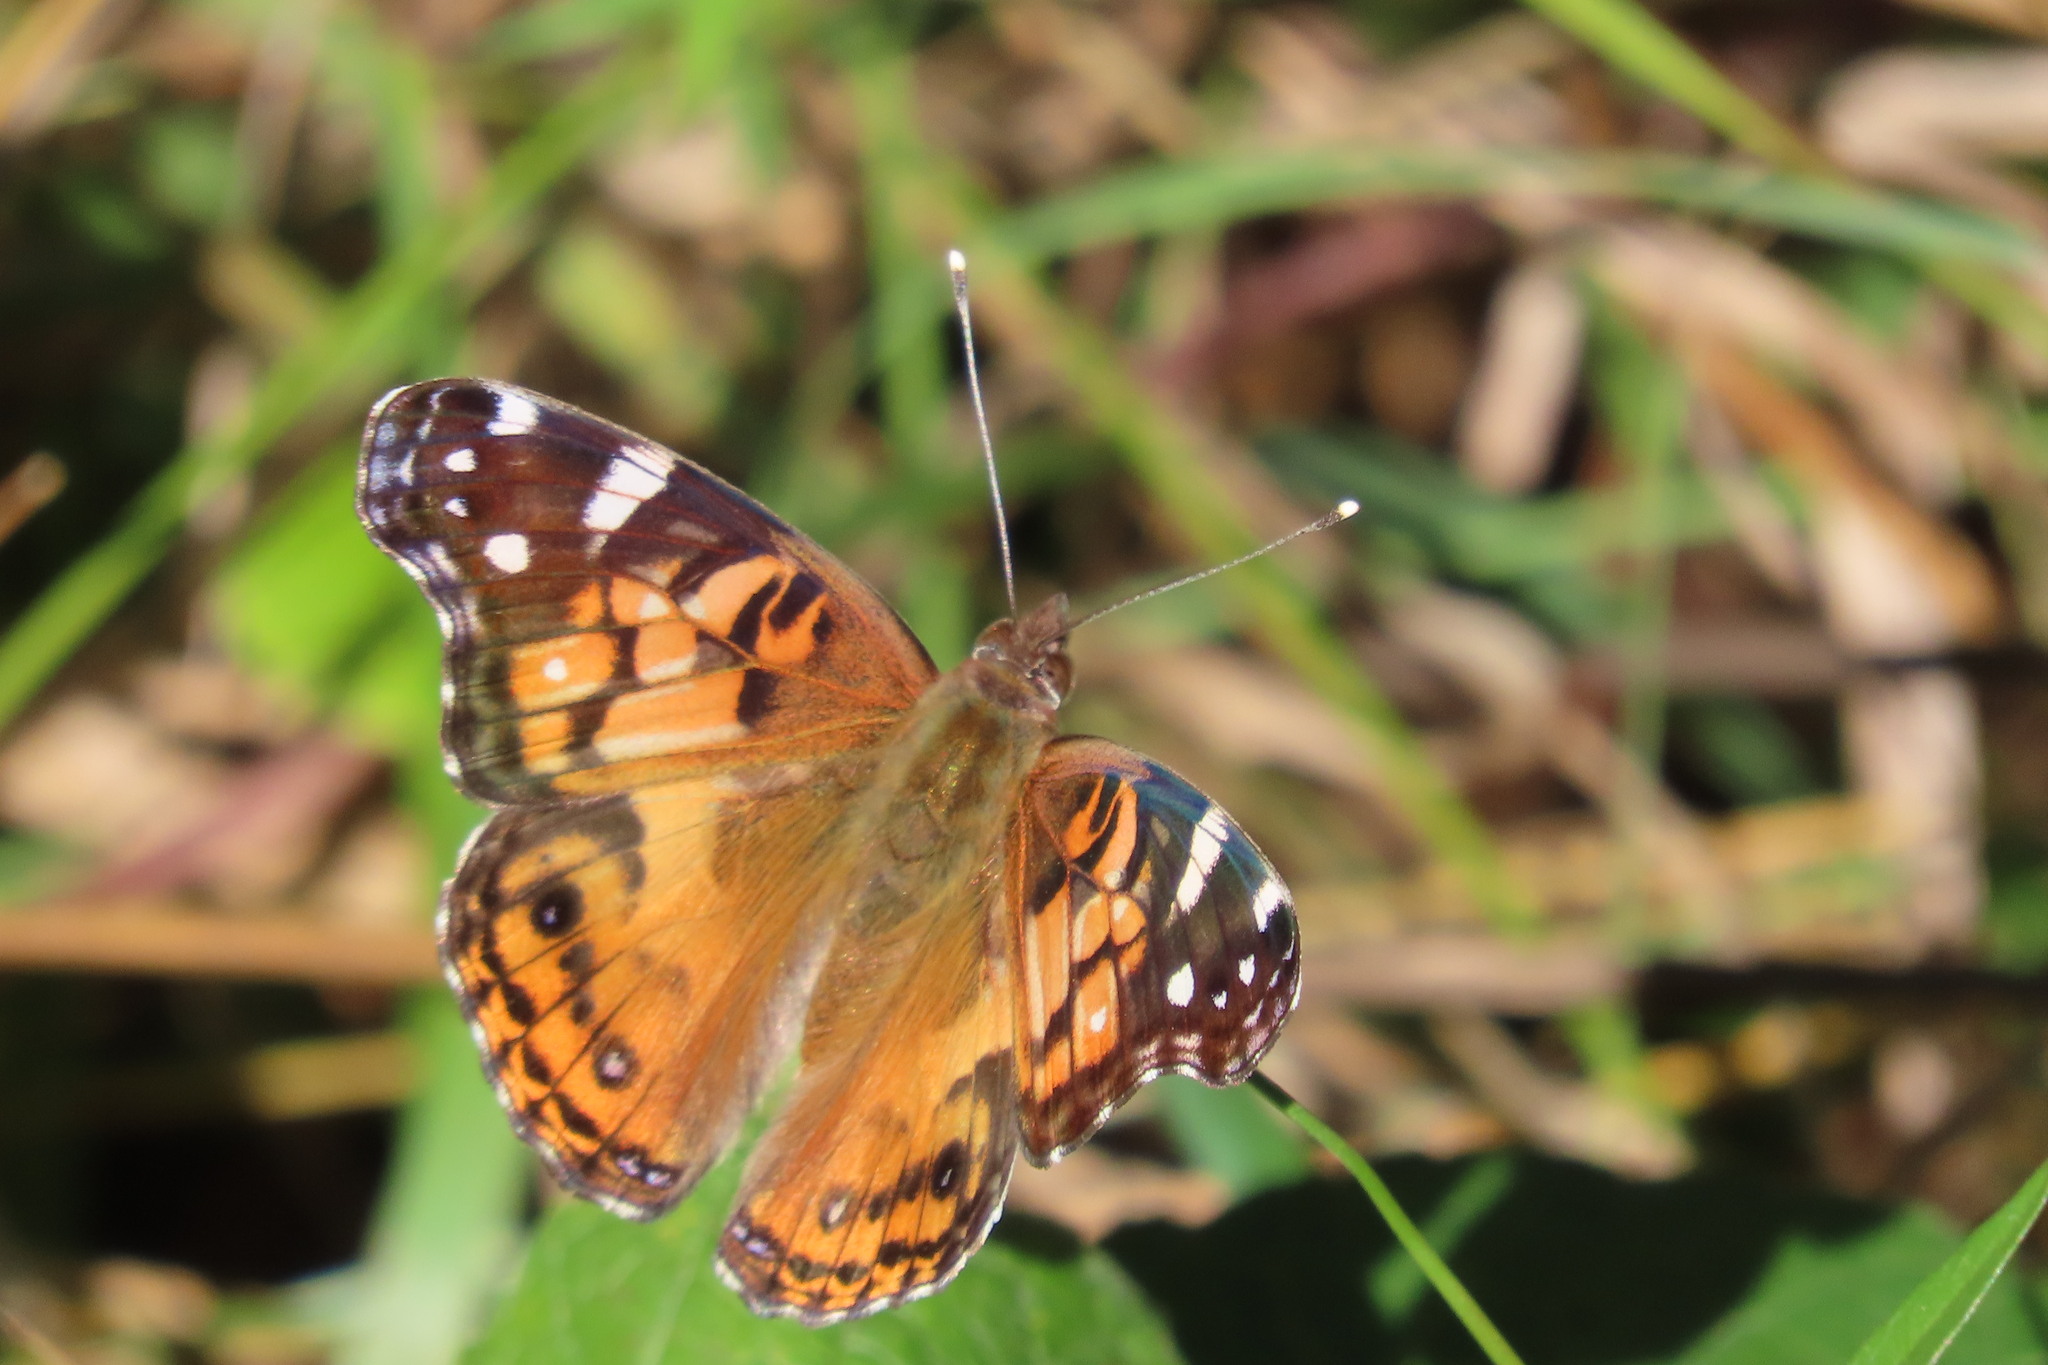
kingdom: Animalia
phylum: Arthropoda
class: Insecta
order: Lepidoptera
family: Nymphalidae
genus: Vanessa
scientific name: Vanessa virginiensis
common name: American lady
